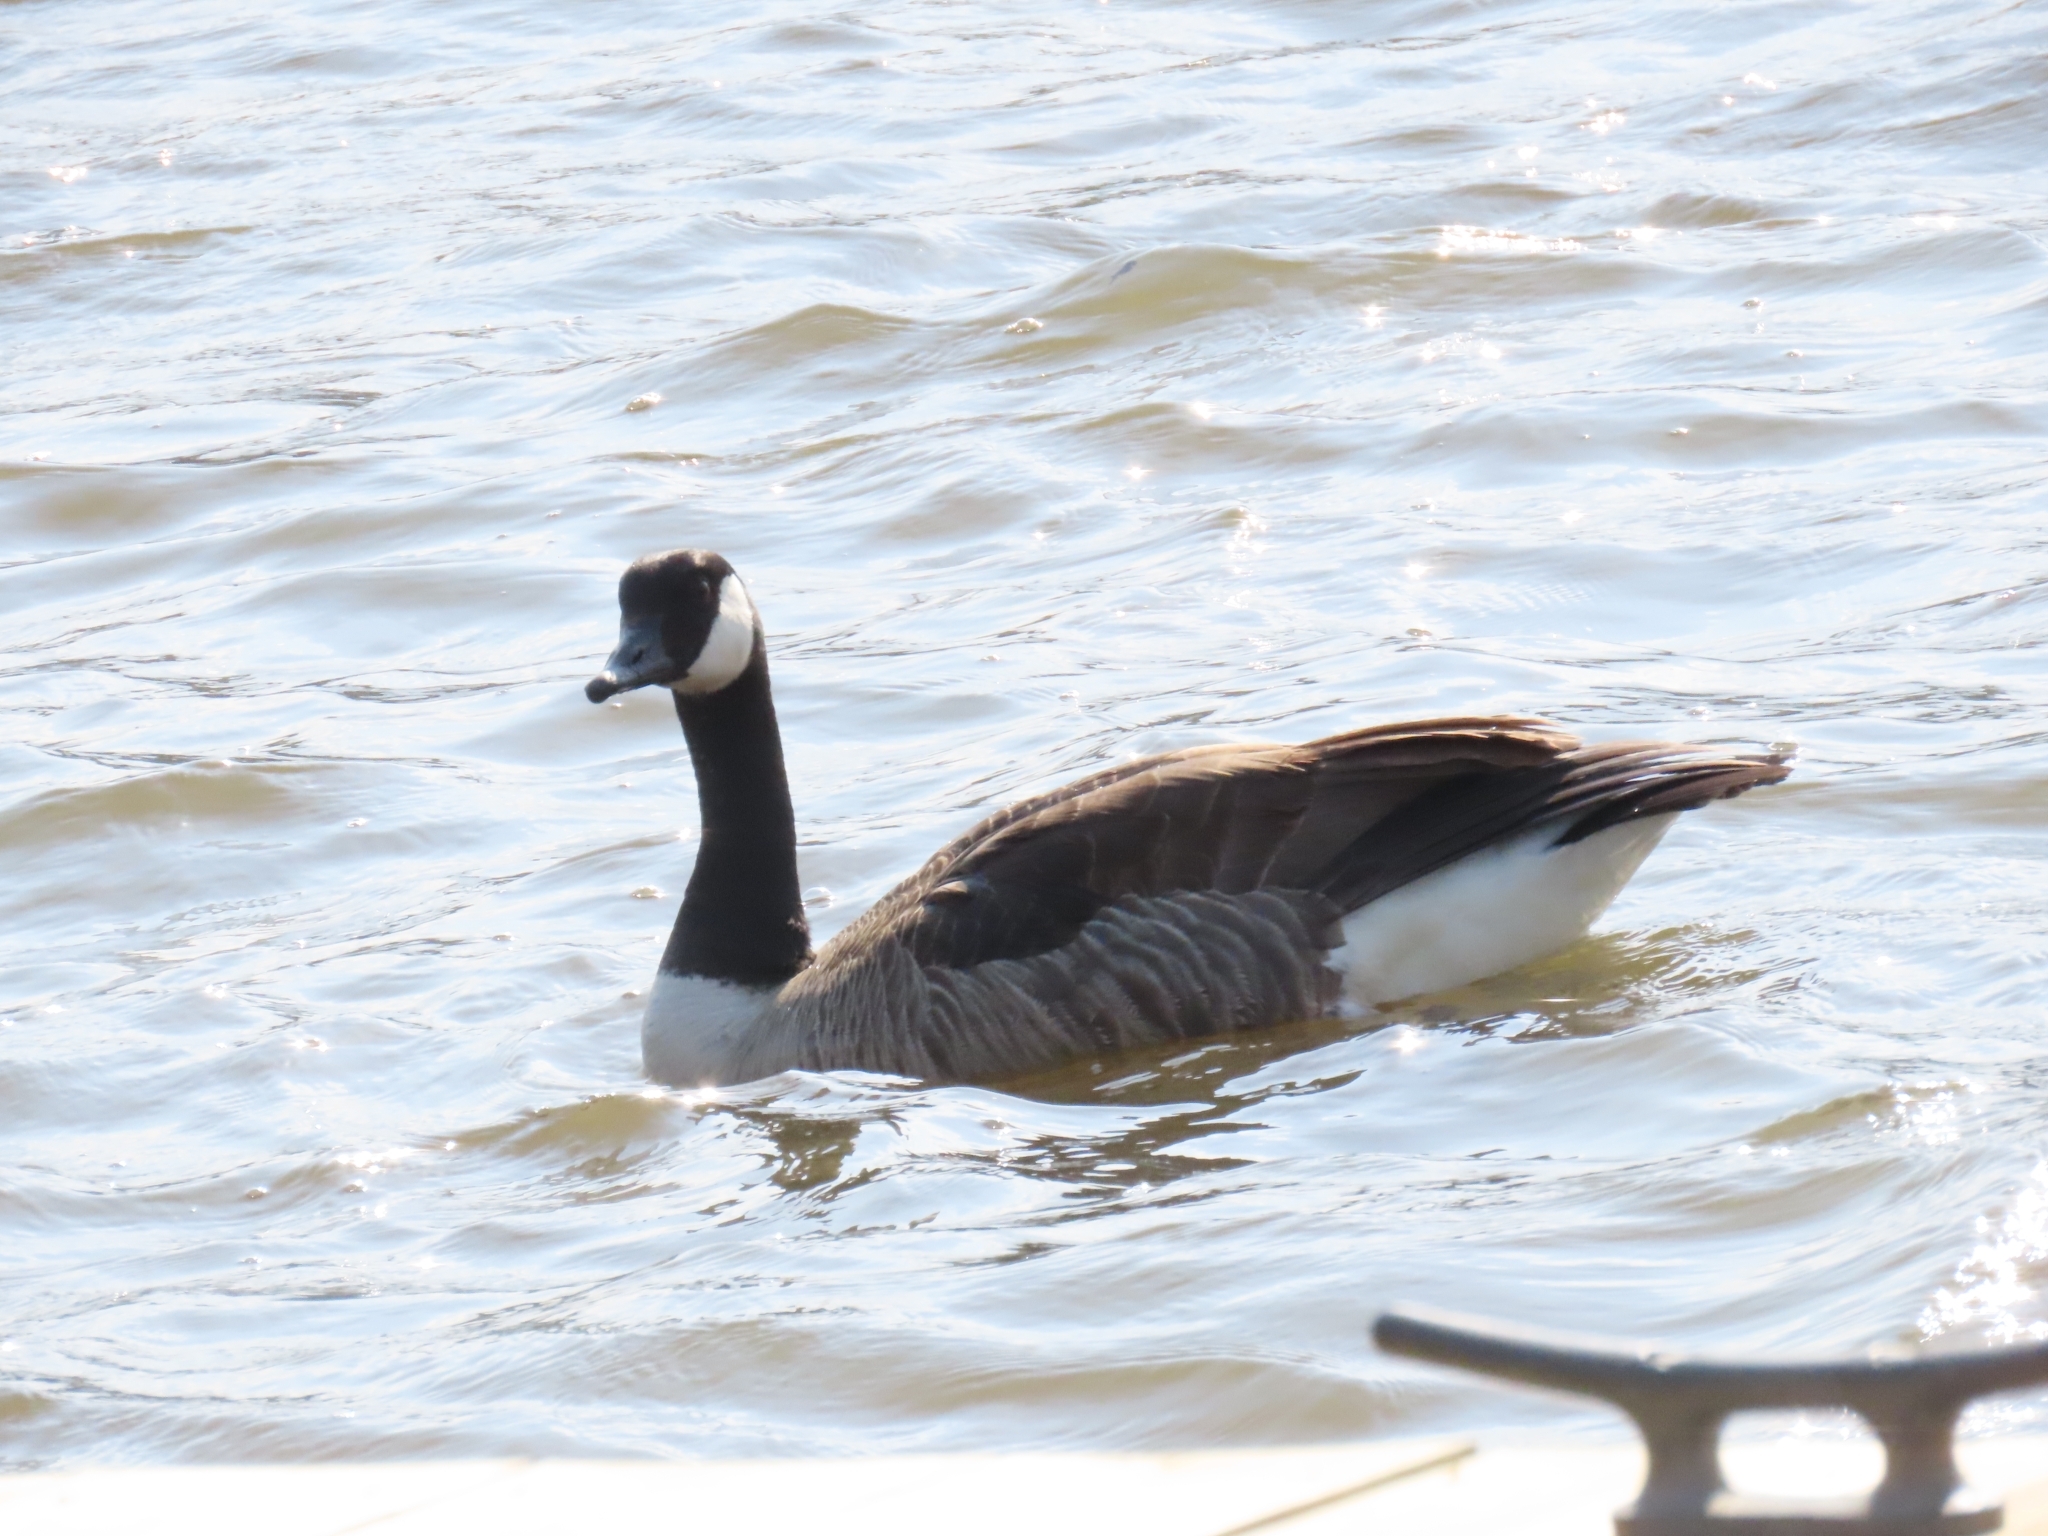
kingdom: Animalia
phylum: Chordata
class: Aves
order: Anseriformes
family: Anatidae
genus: Branta
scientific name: Branta canadensis
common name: Canada goose
